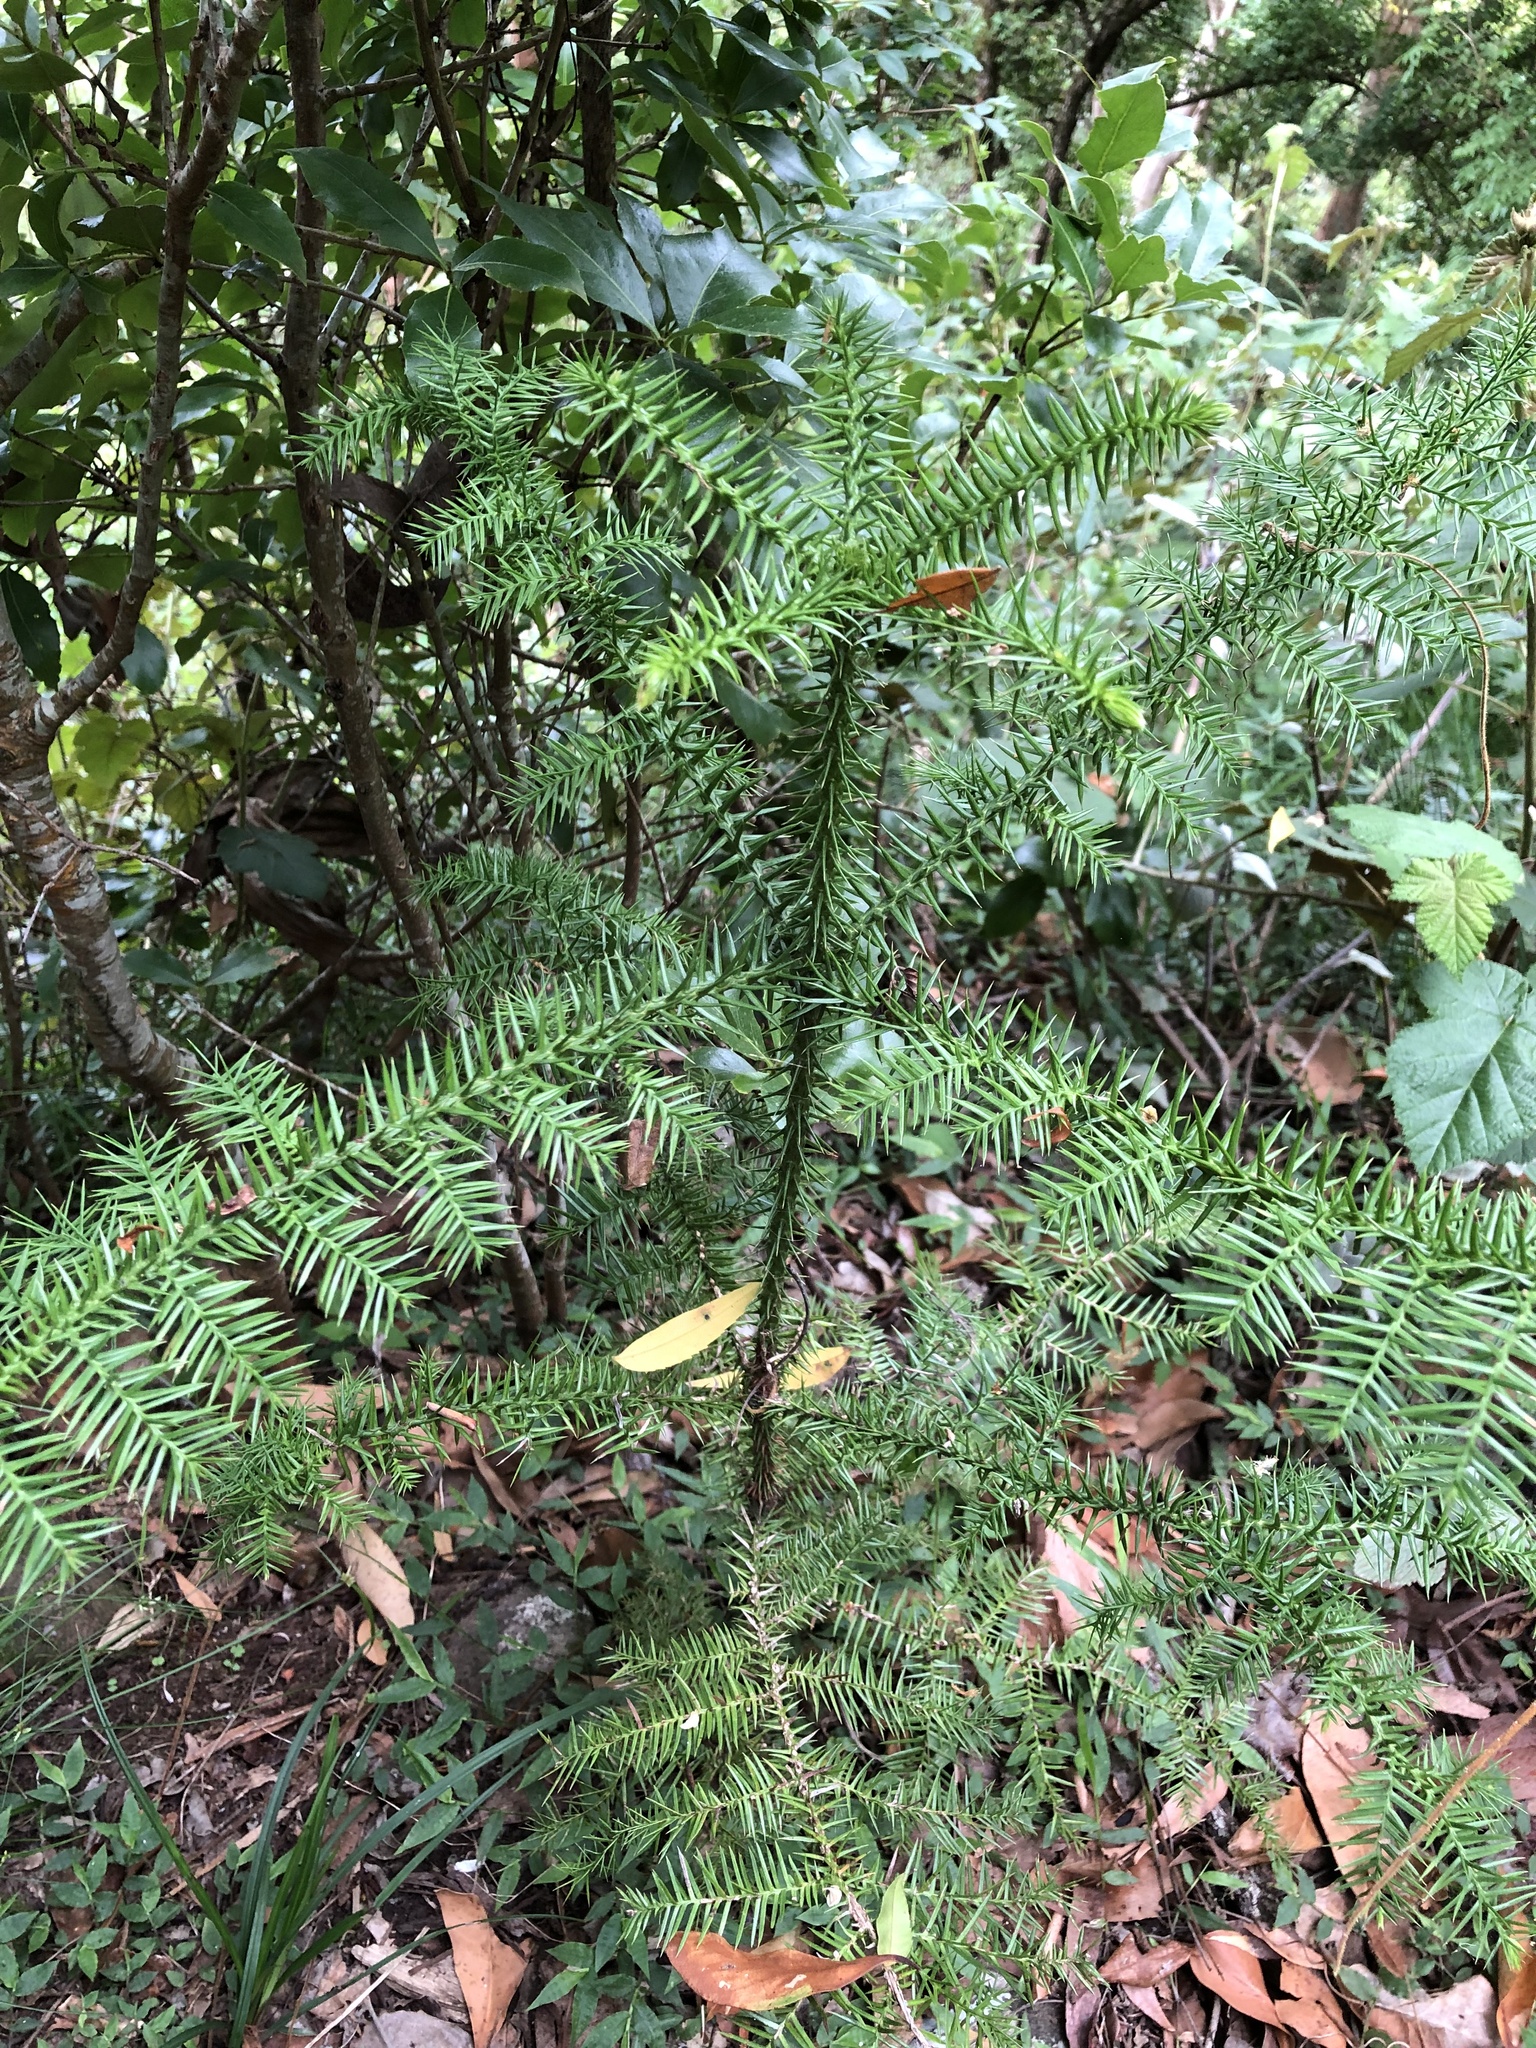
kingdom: Plantae
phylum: Tracheophyta
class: Pinopsida
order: Pinales
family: Araucariaceae
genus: Araucaria
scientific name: Araucaria cunninghamii
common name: Colonial pine
